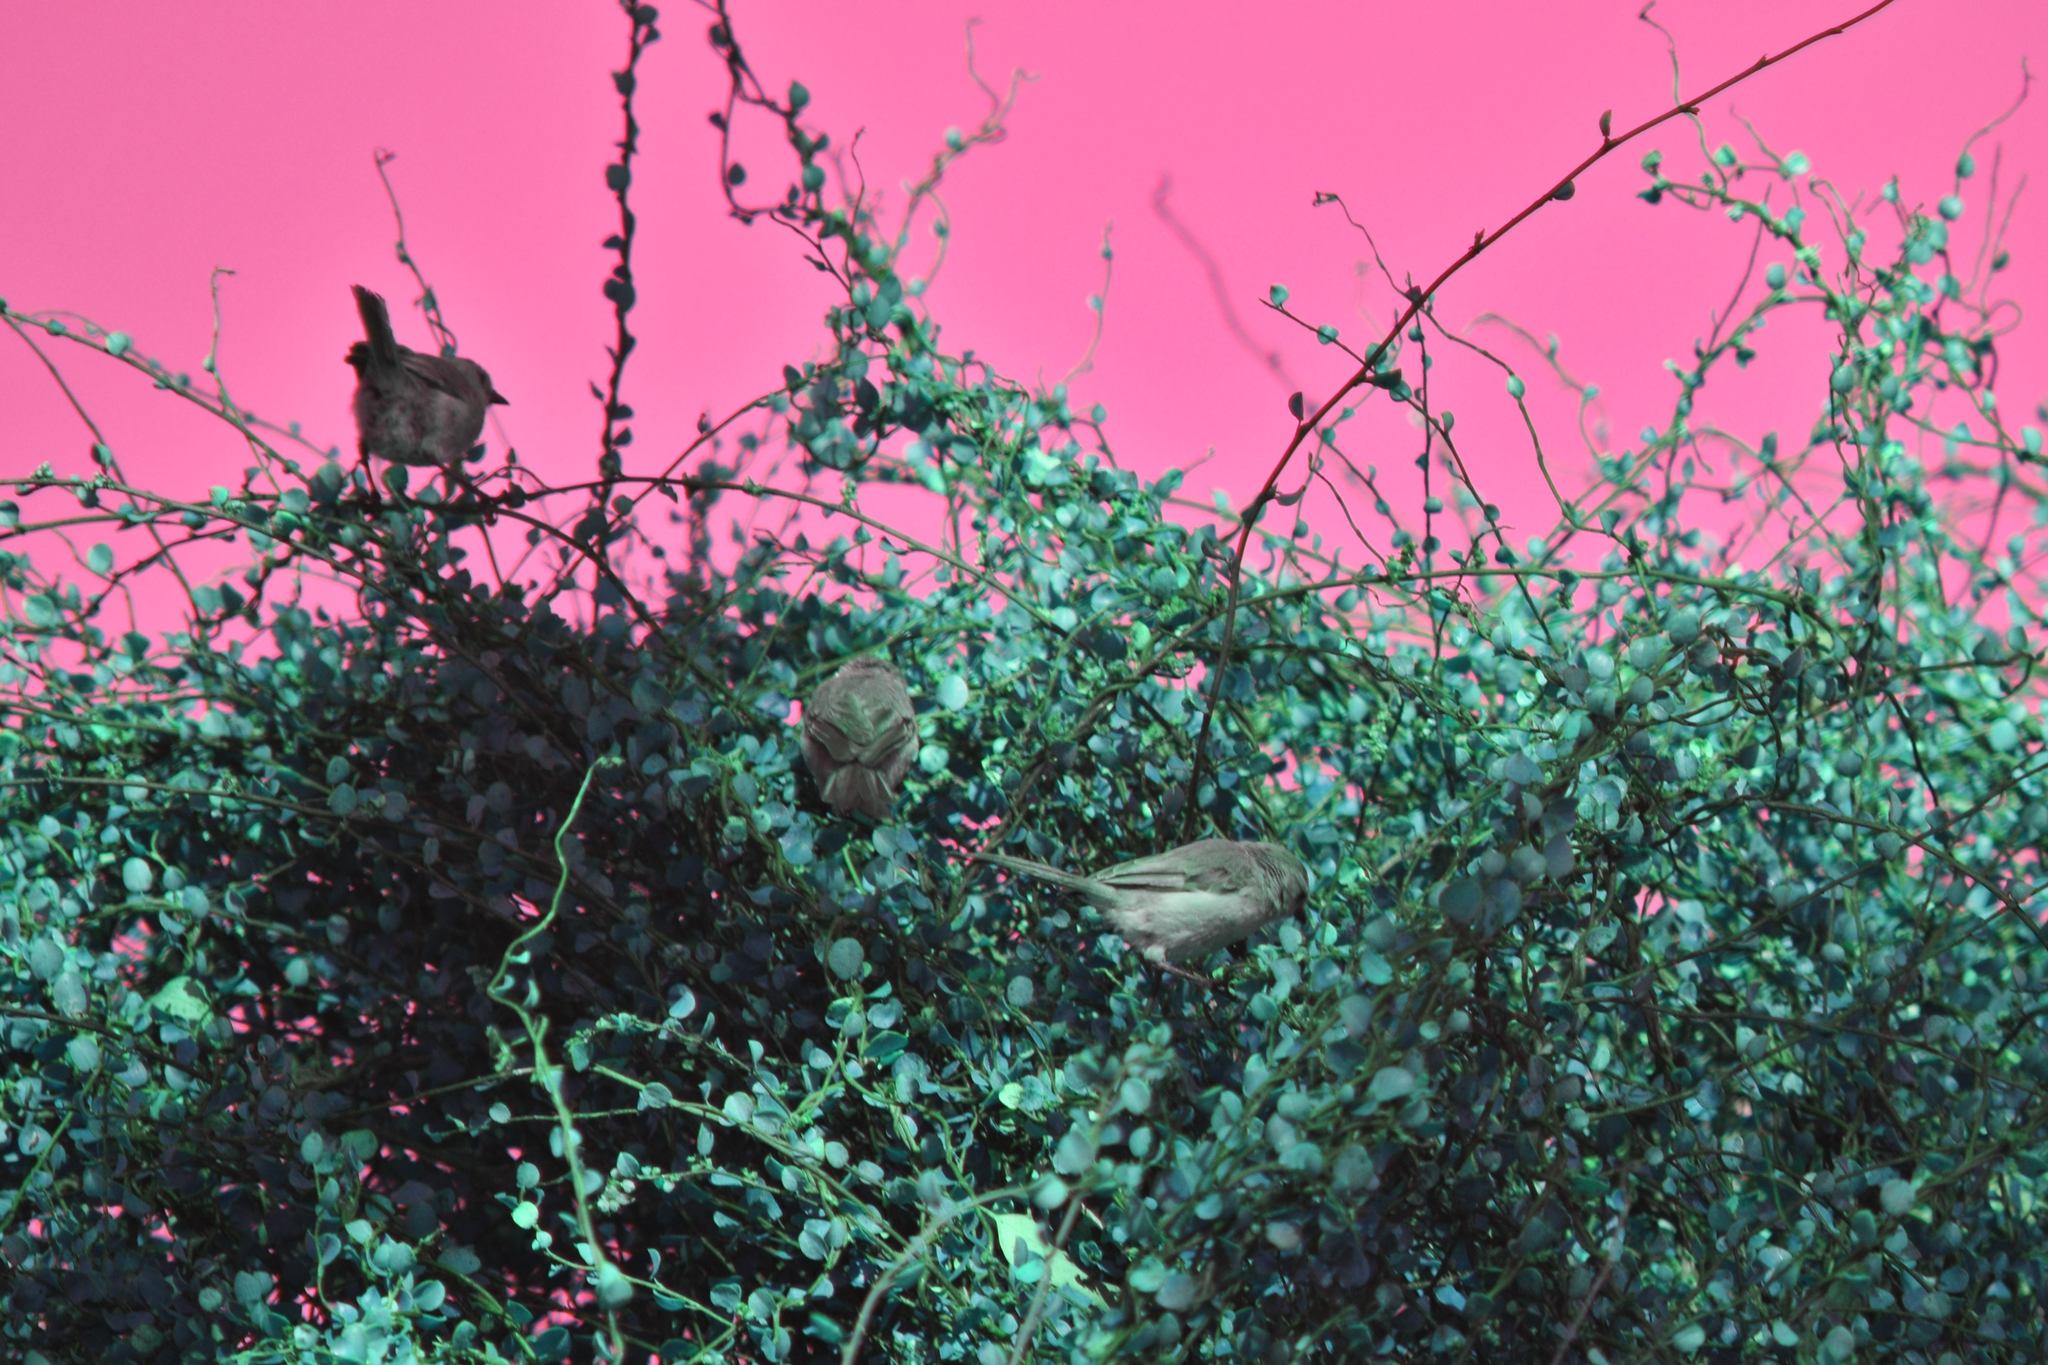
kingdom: Animalia
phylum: Chordata
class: Aves
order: Passeriformes
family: Aegithalidae
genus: Psaltriparus
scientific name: Psaltriparus minimus
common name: American bushtit
